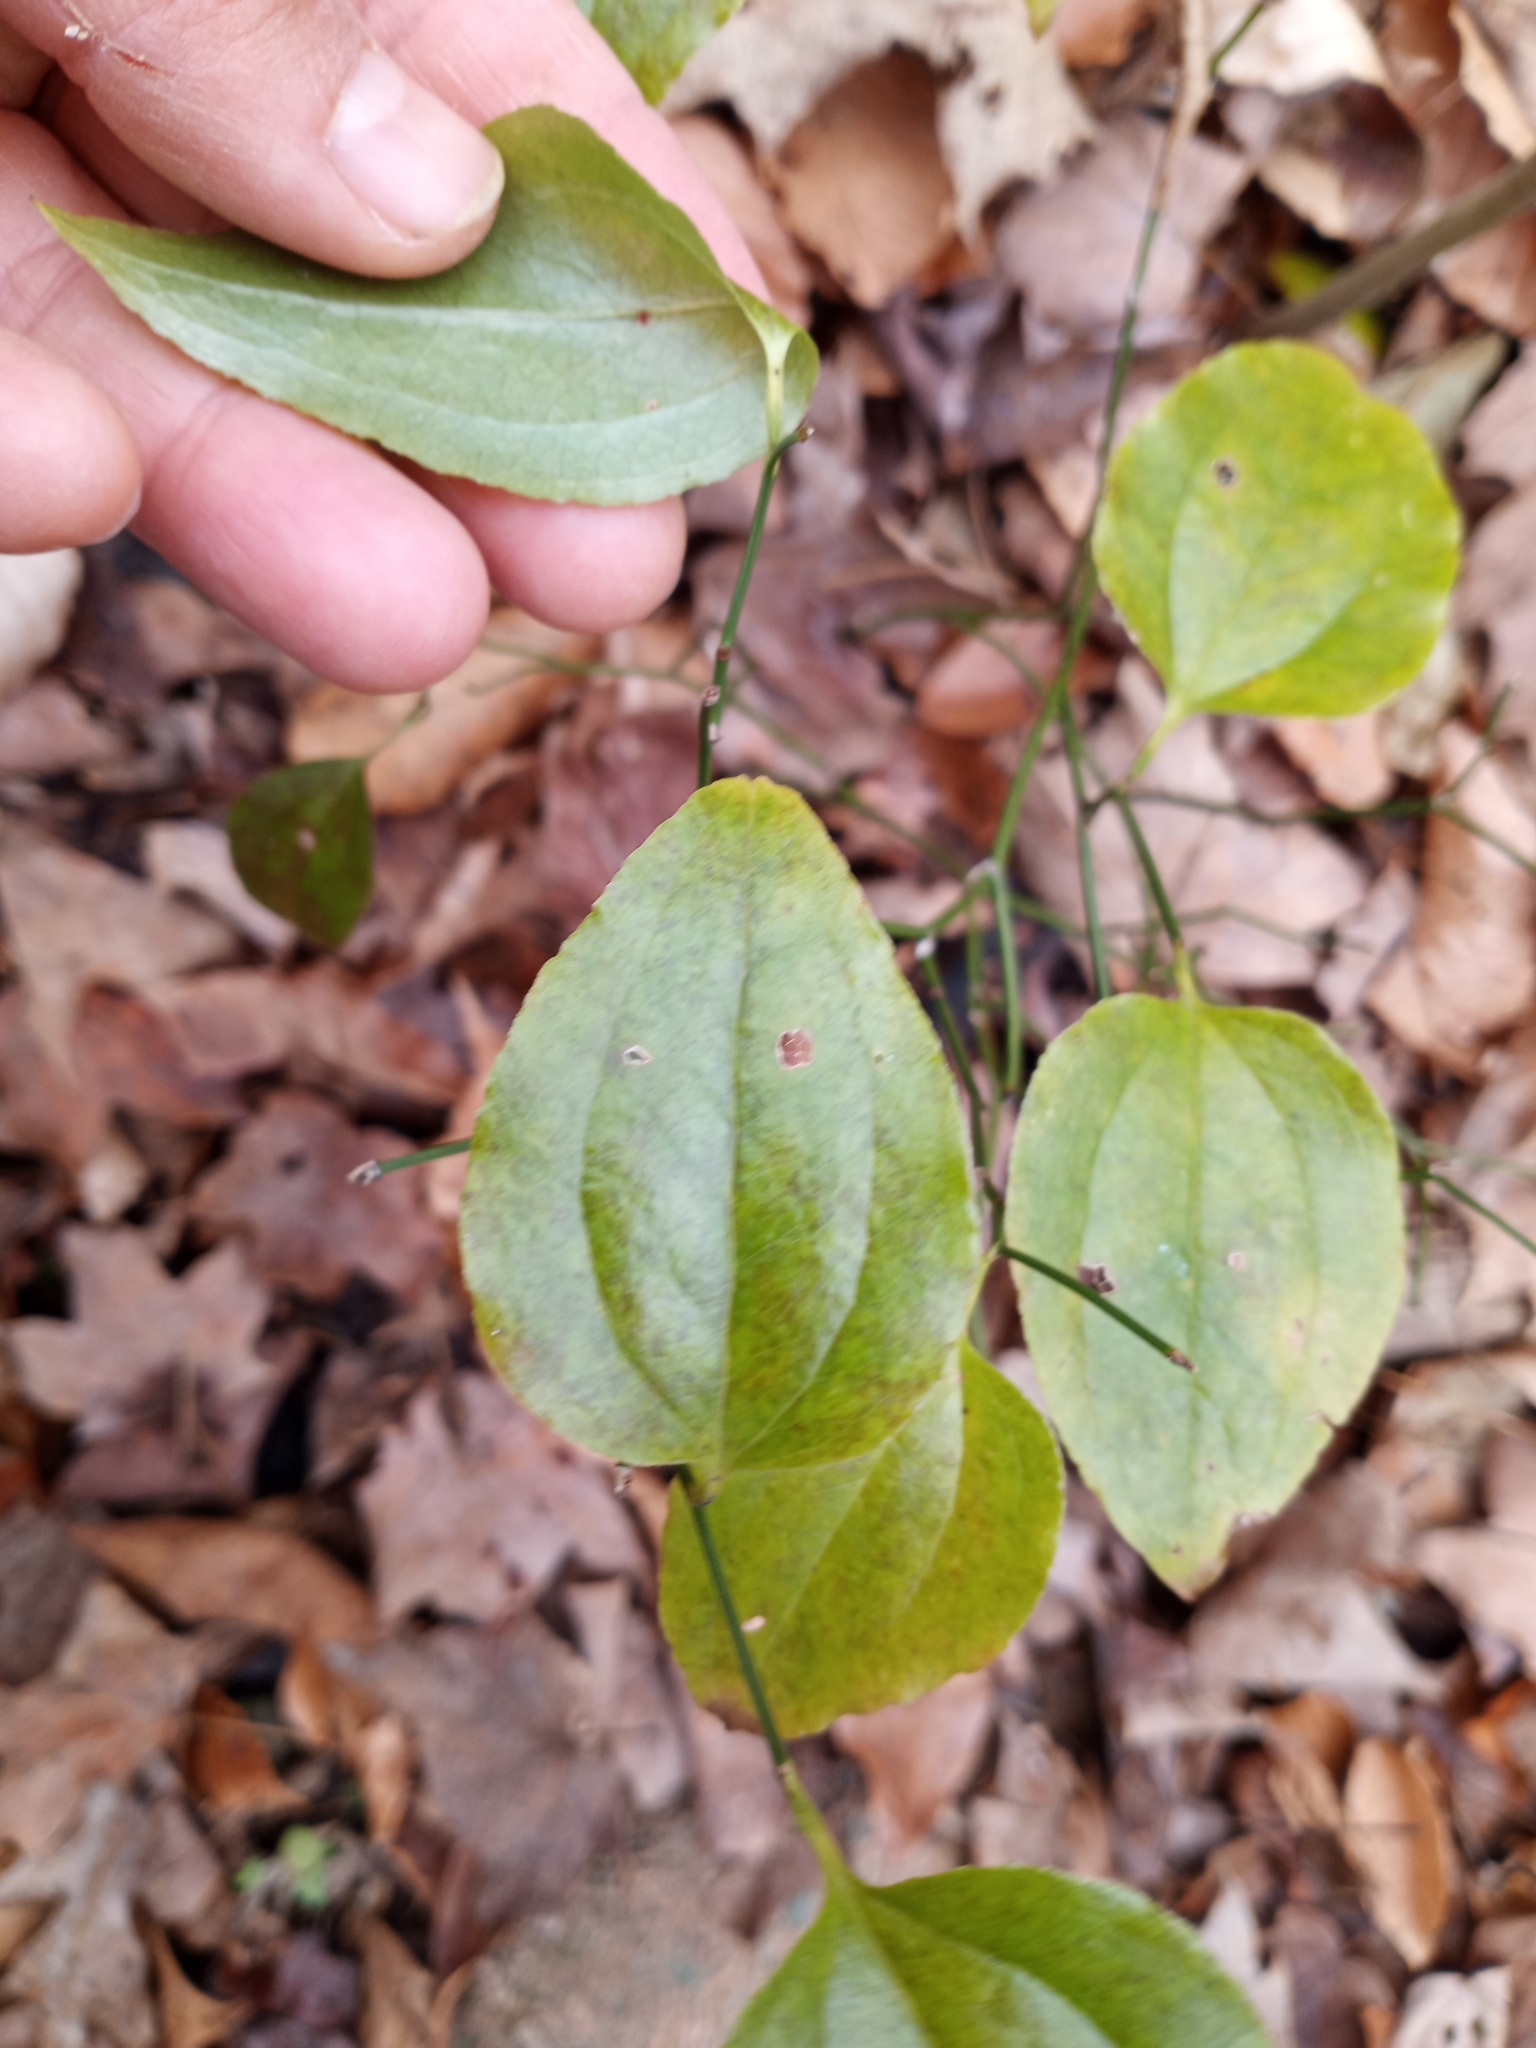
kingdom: Plantae
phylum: Tracheophyta
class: Liliopsida
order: Liliales
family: Smilacaceae
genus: Smilax
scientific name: Smilax rotundifolia
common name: Bullbriar
